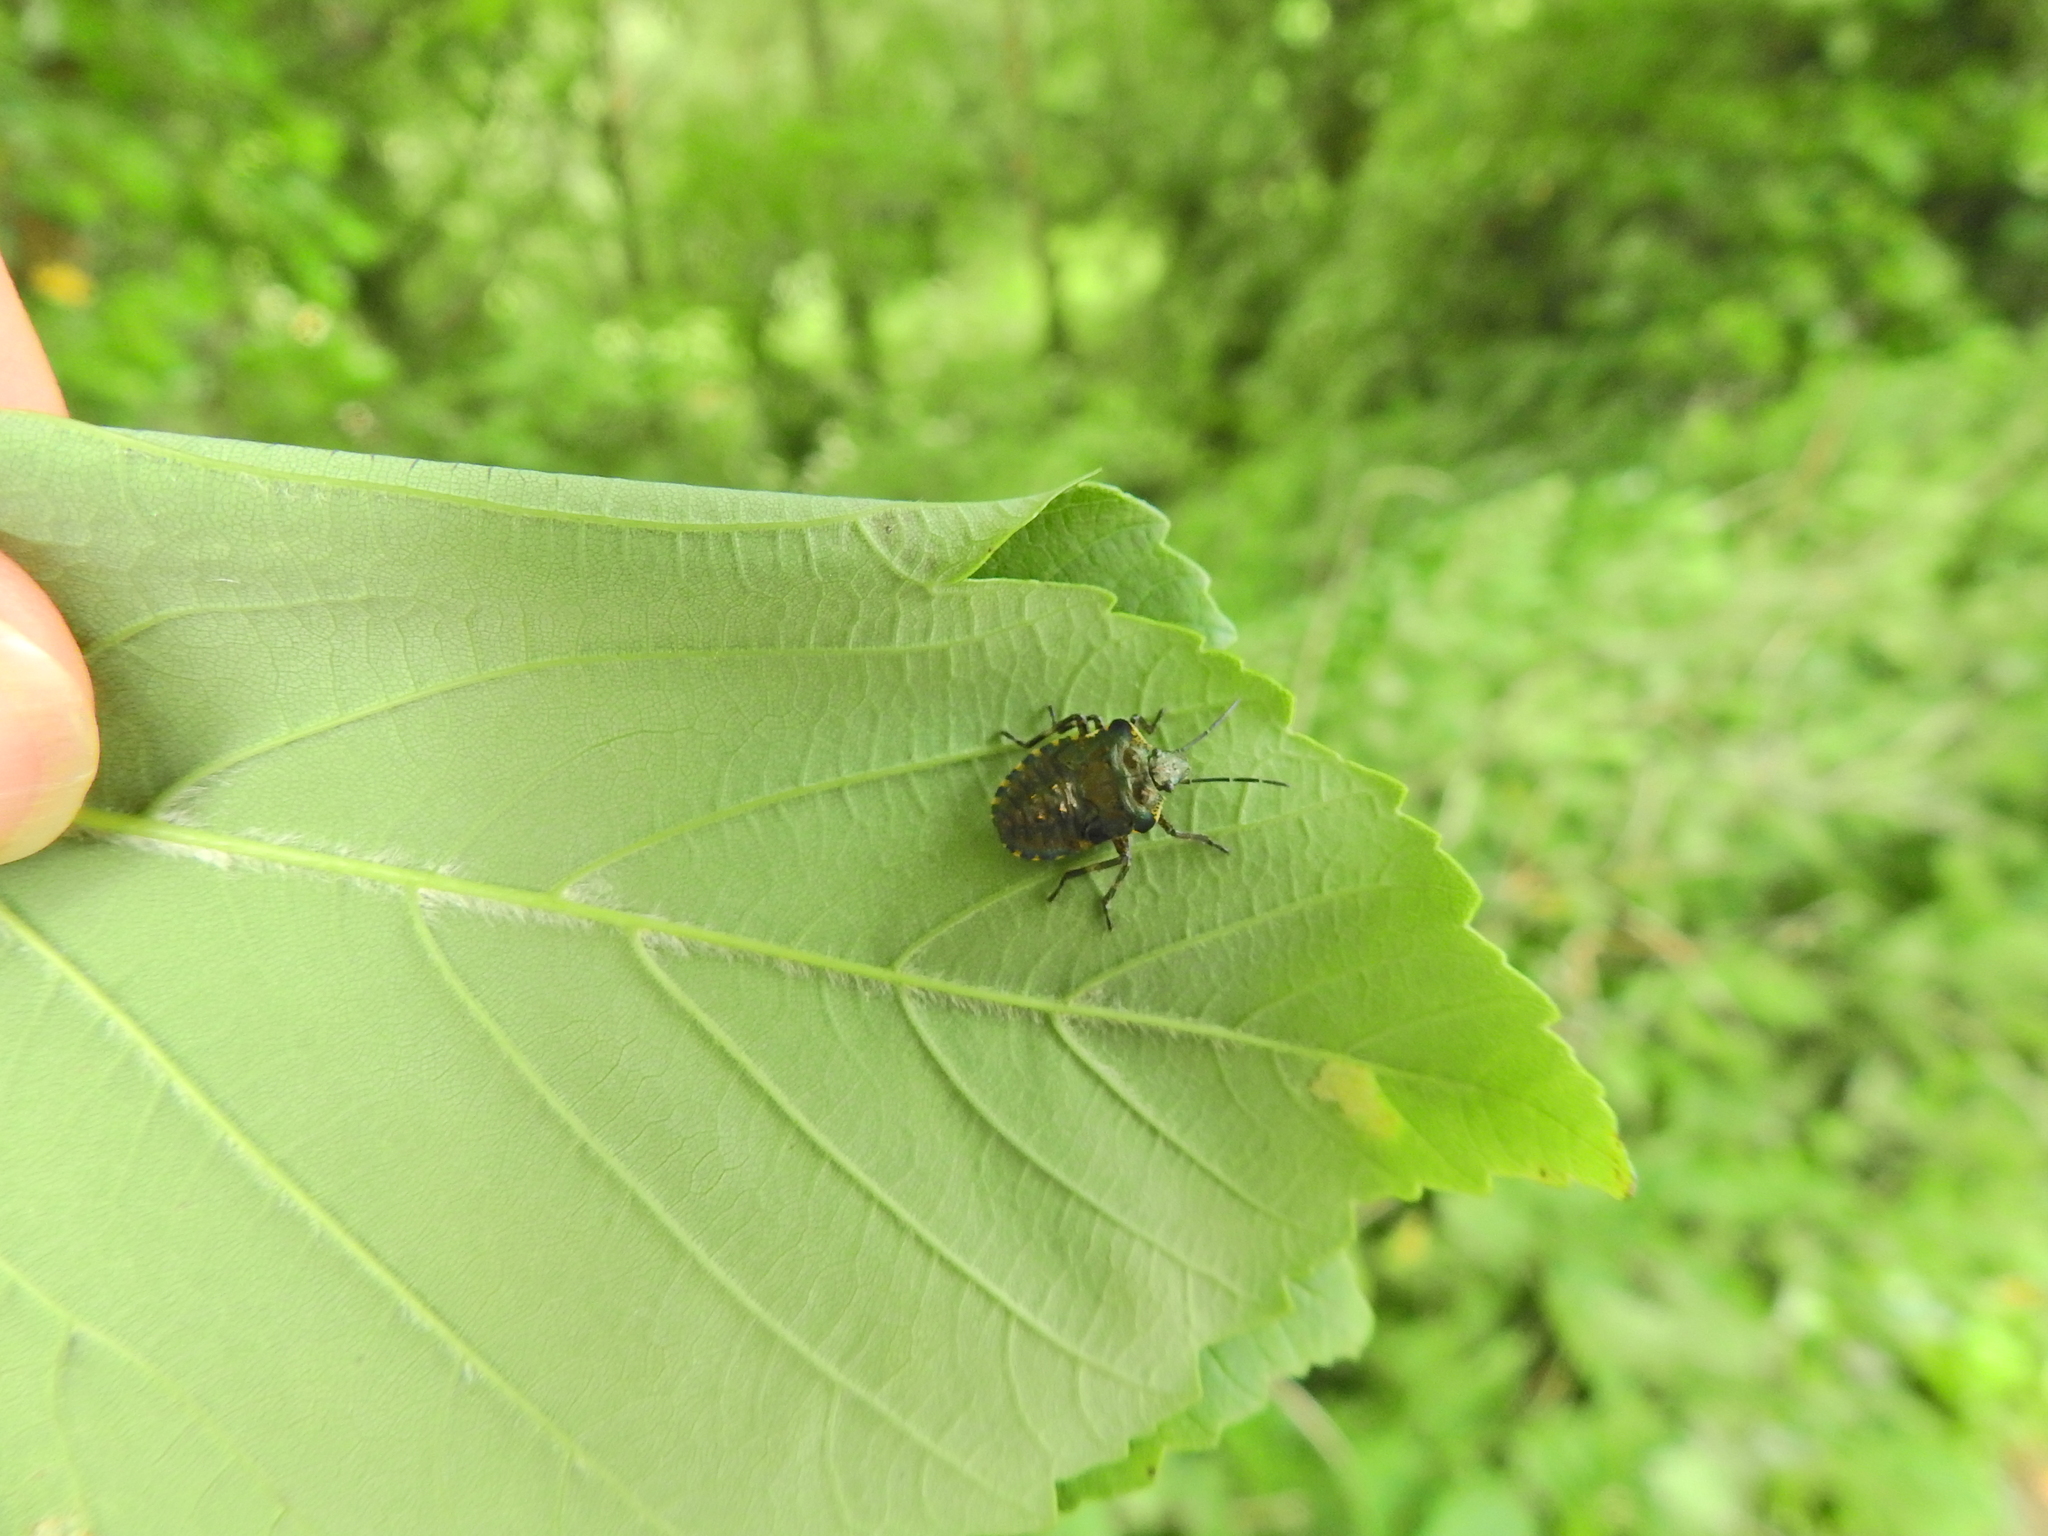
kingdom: Animalia
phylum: Arthropoda
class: Insecta
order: Hemiptera
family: Pentatomidae
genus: Pentatoma
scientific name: Pentatoma rufipes
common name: Forest bug
